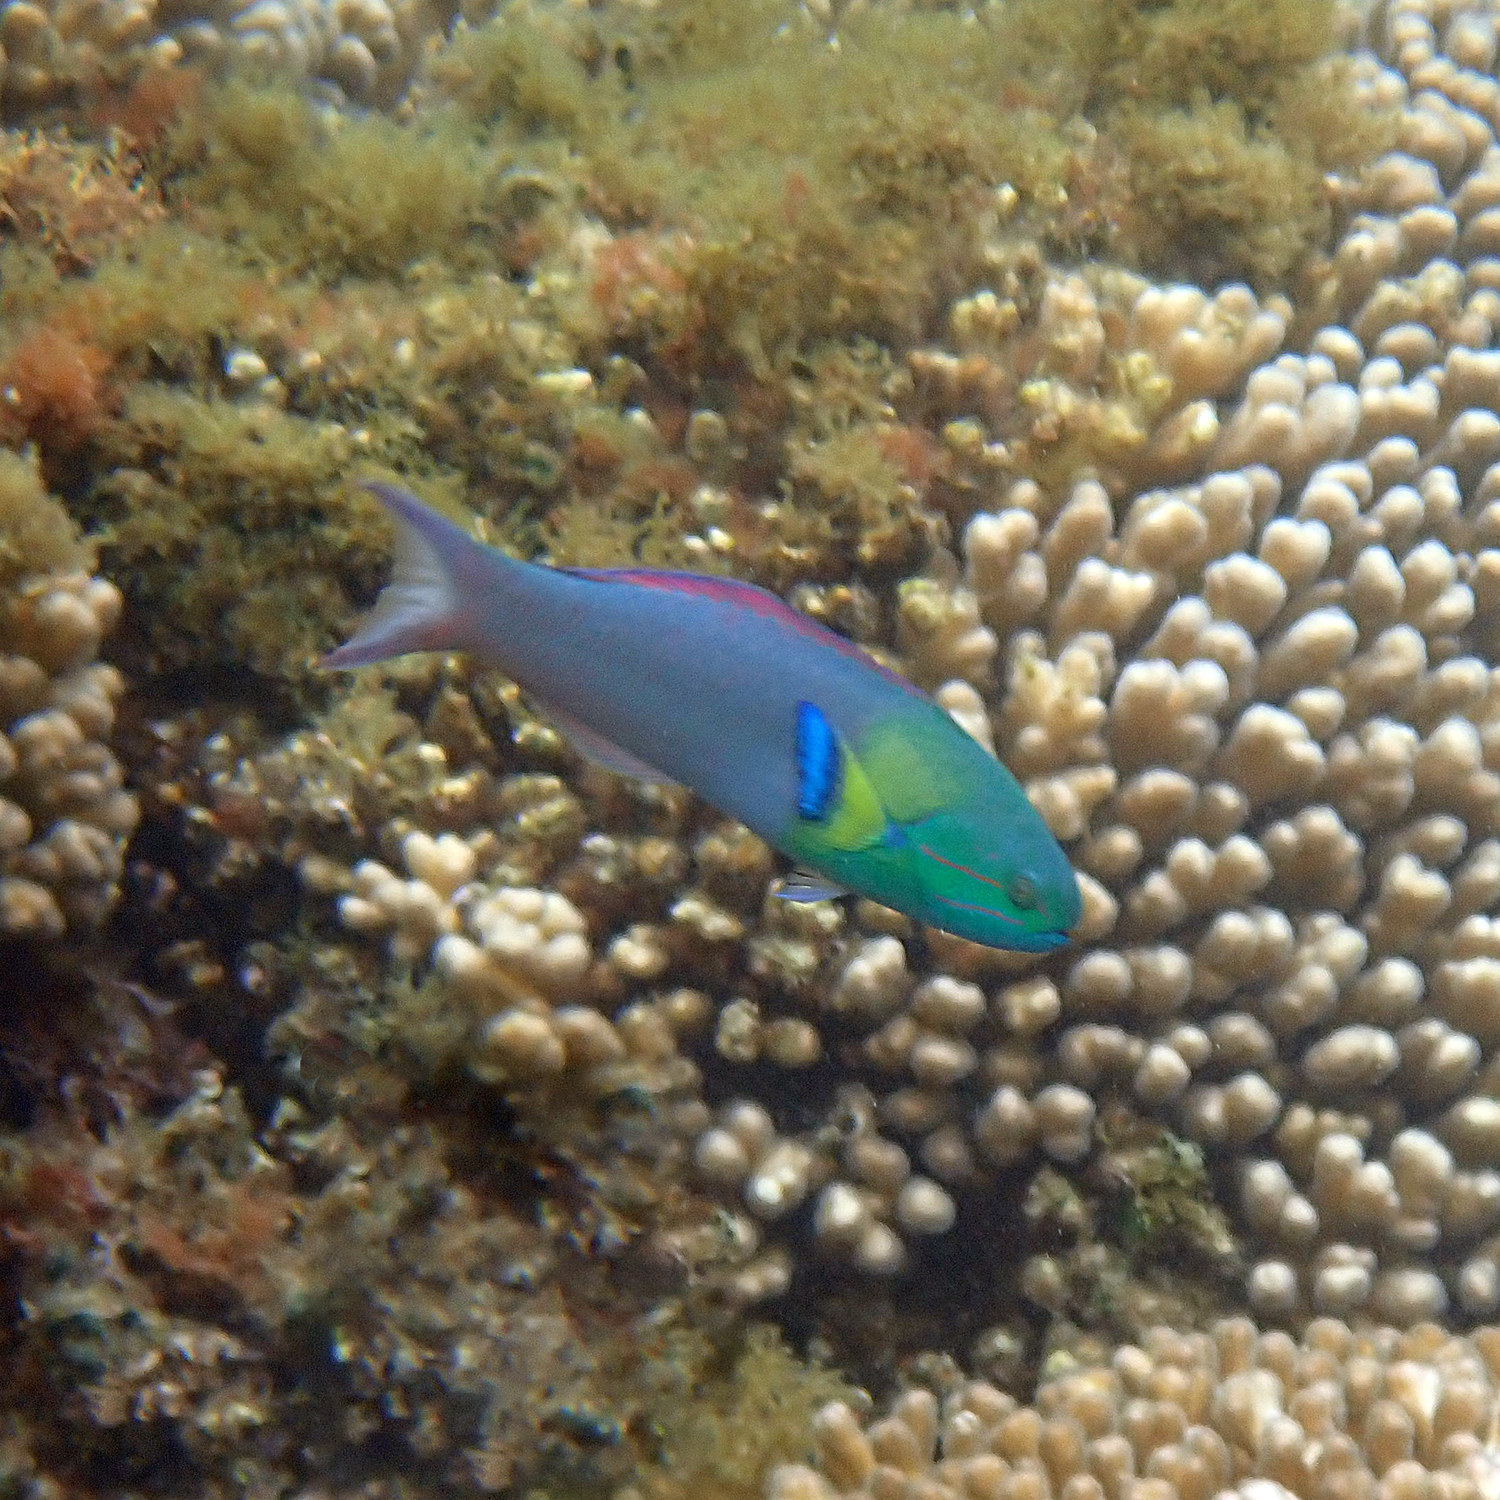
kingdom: Animalia
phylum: Chordata
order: Perciformes
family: Labridae
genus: Thalassoma
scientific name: Thalassoma amblycephalum
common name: Bluehead wrasse
